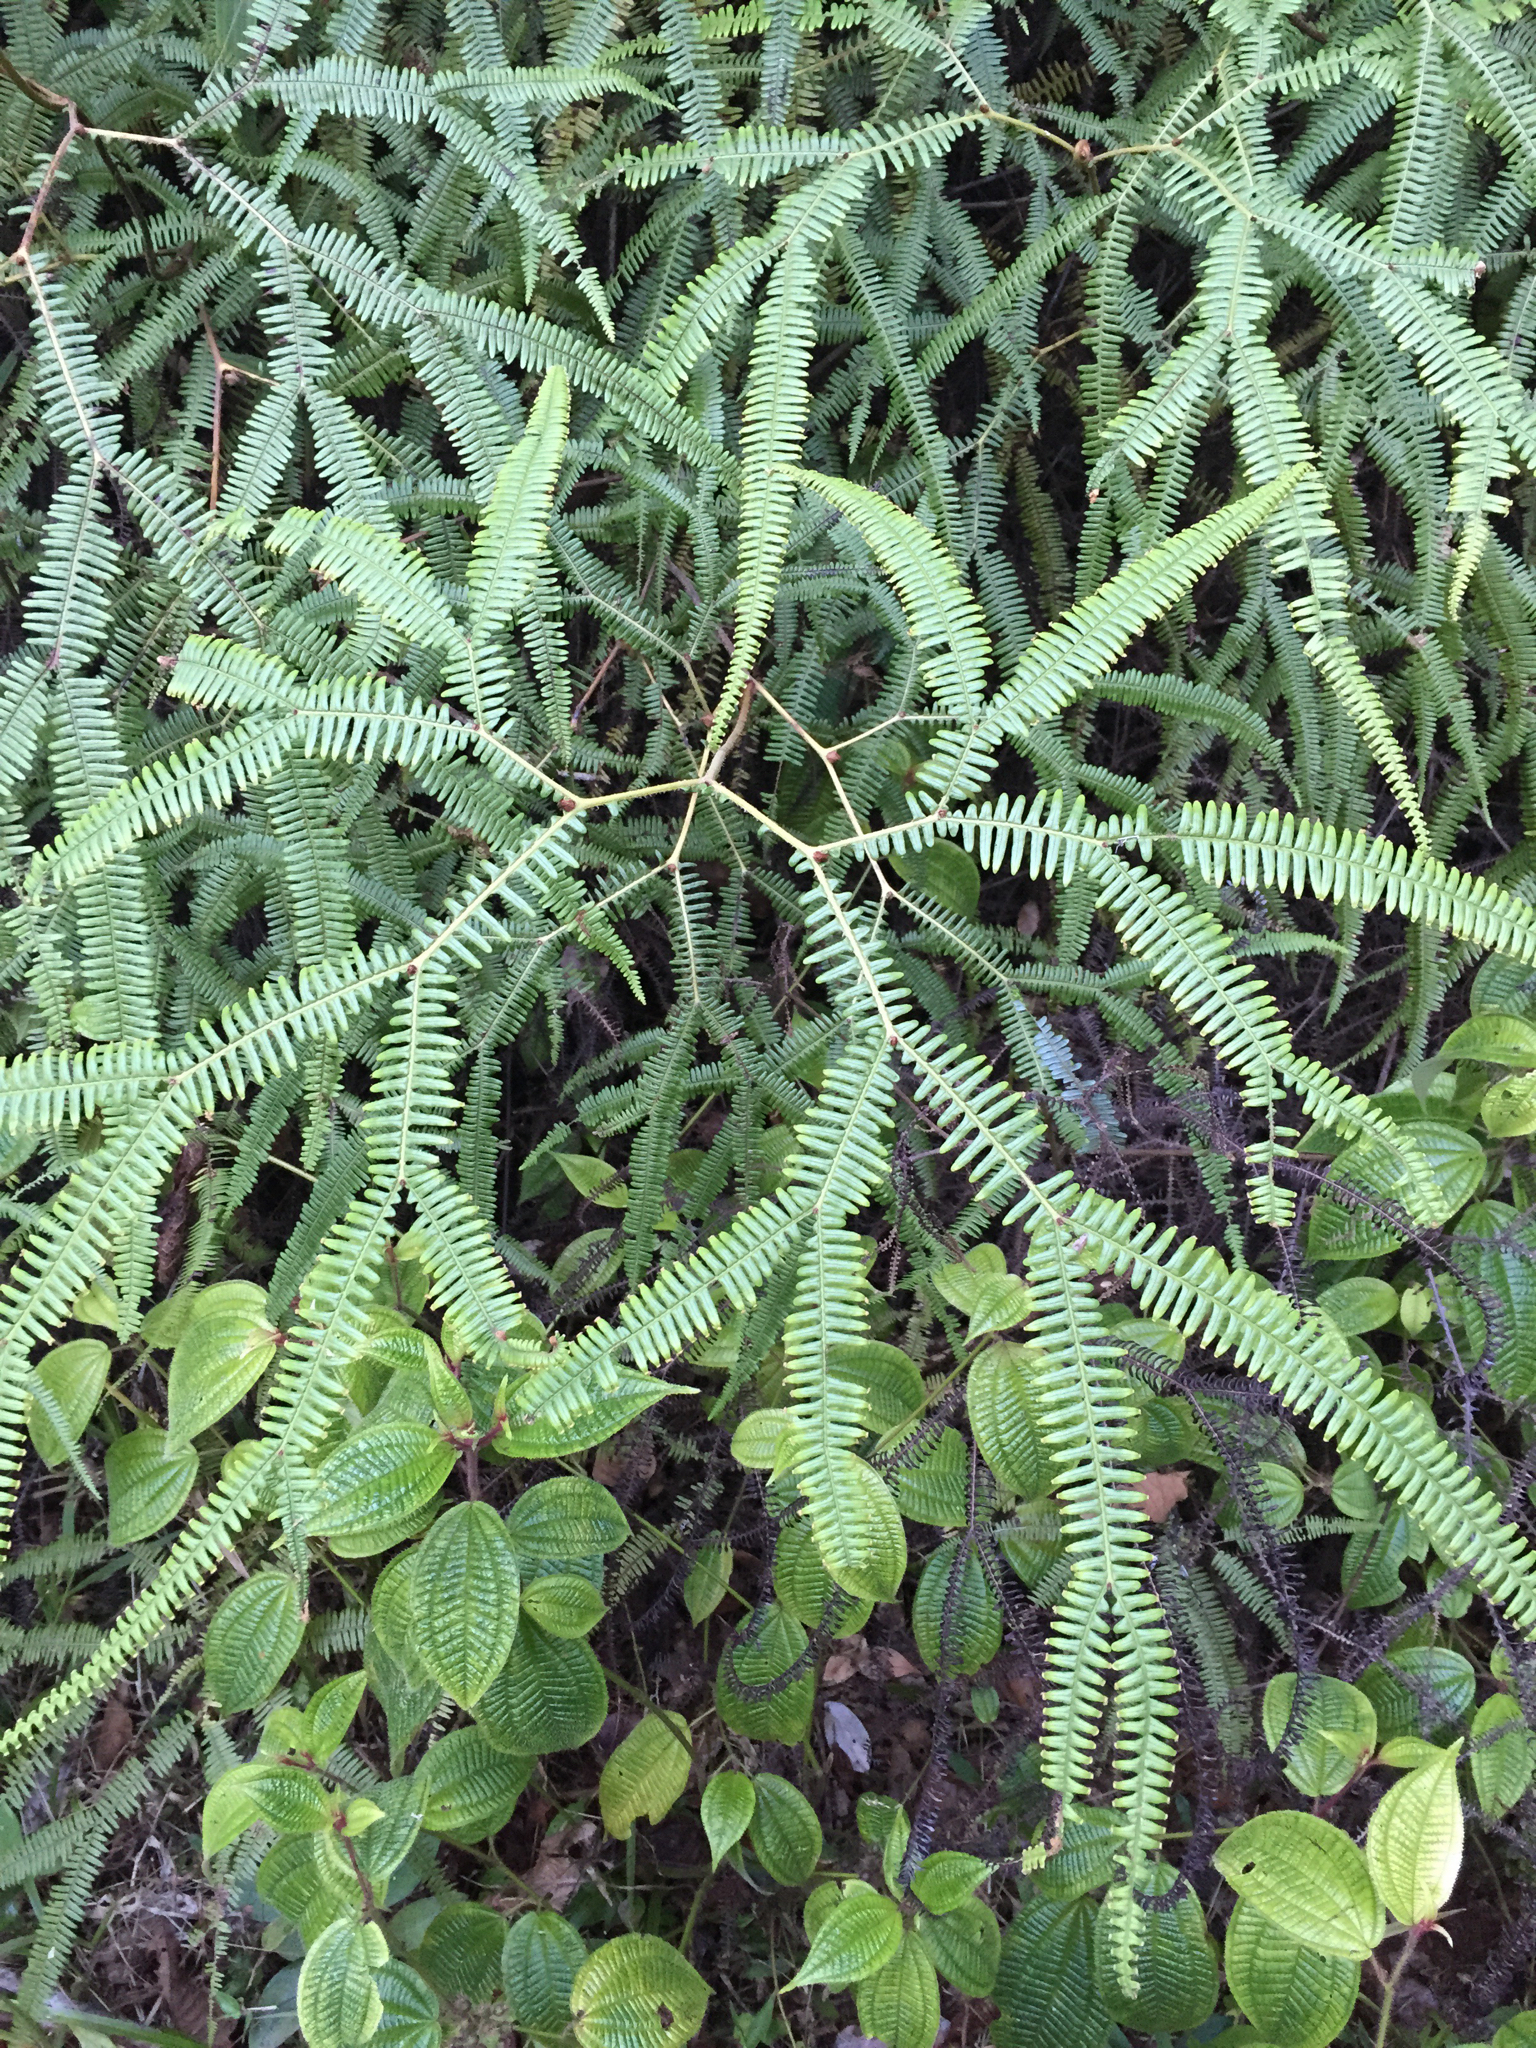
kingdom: Plantae
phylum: Tracheophyta
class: Polypodiopsida
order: Gleicheniales
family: Gleicheniaceae
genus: Sticherus
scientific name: Sticherus flagellaris
